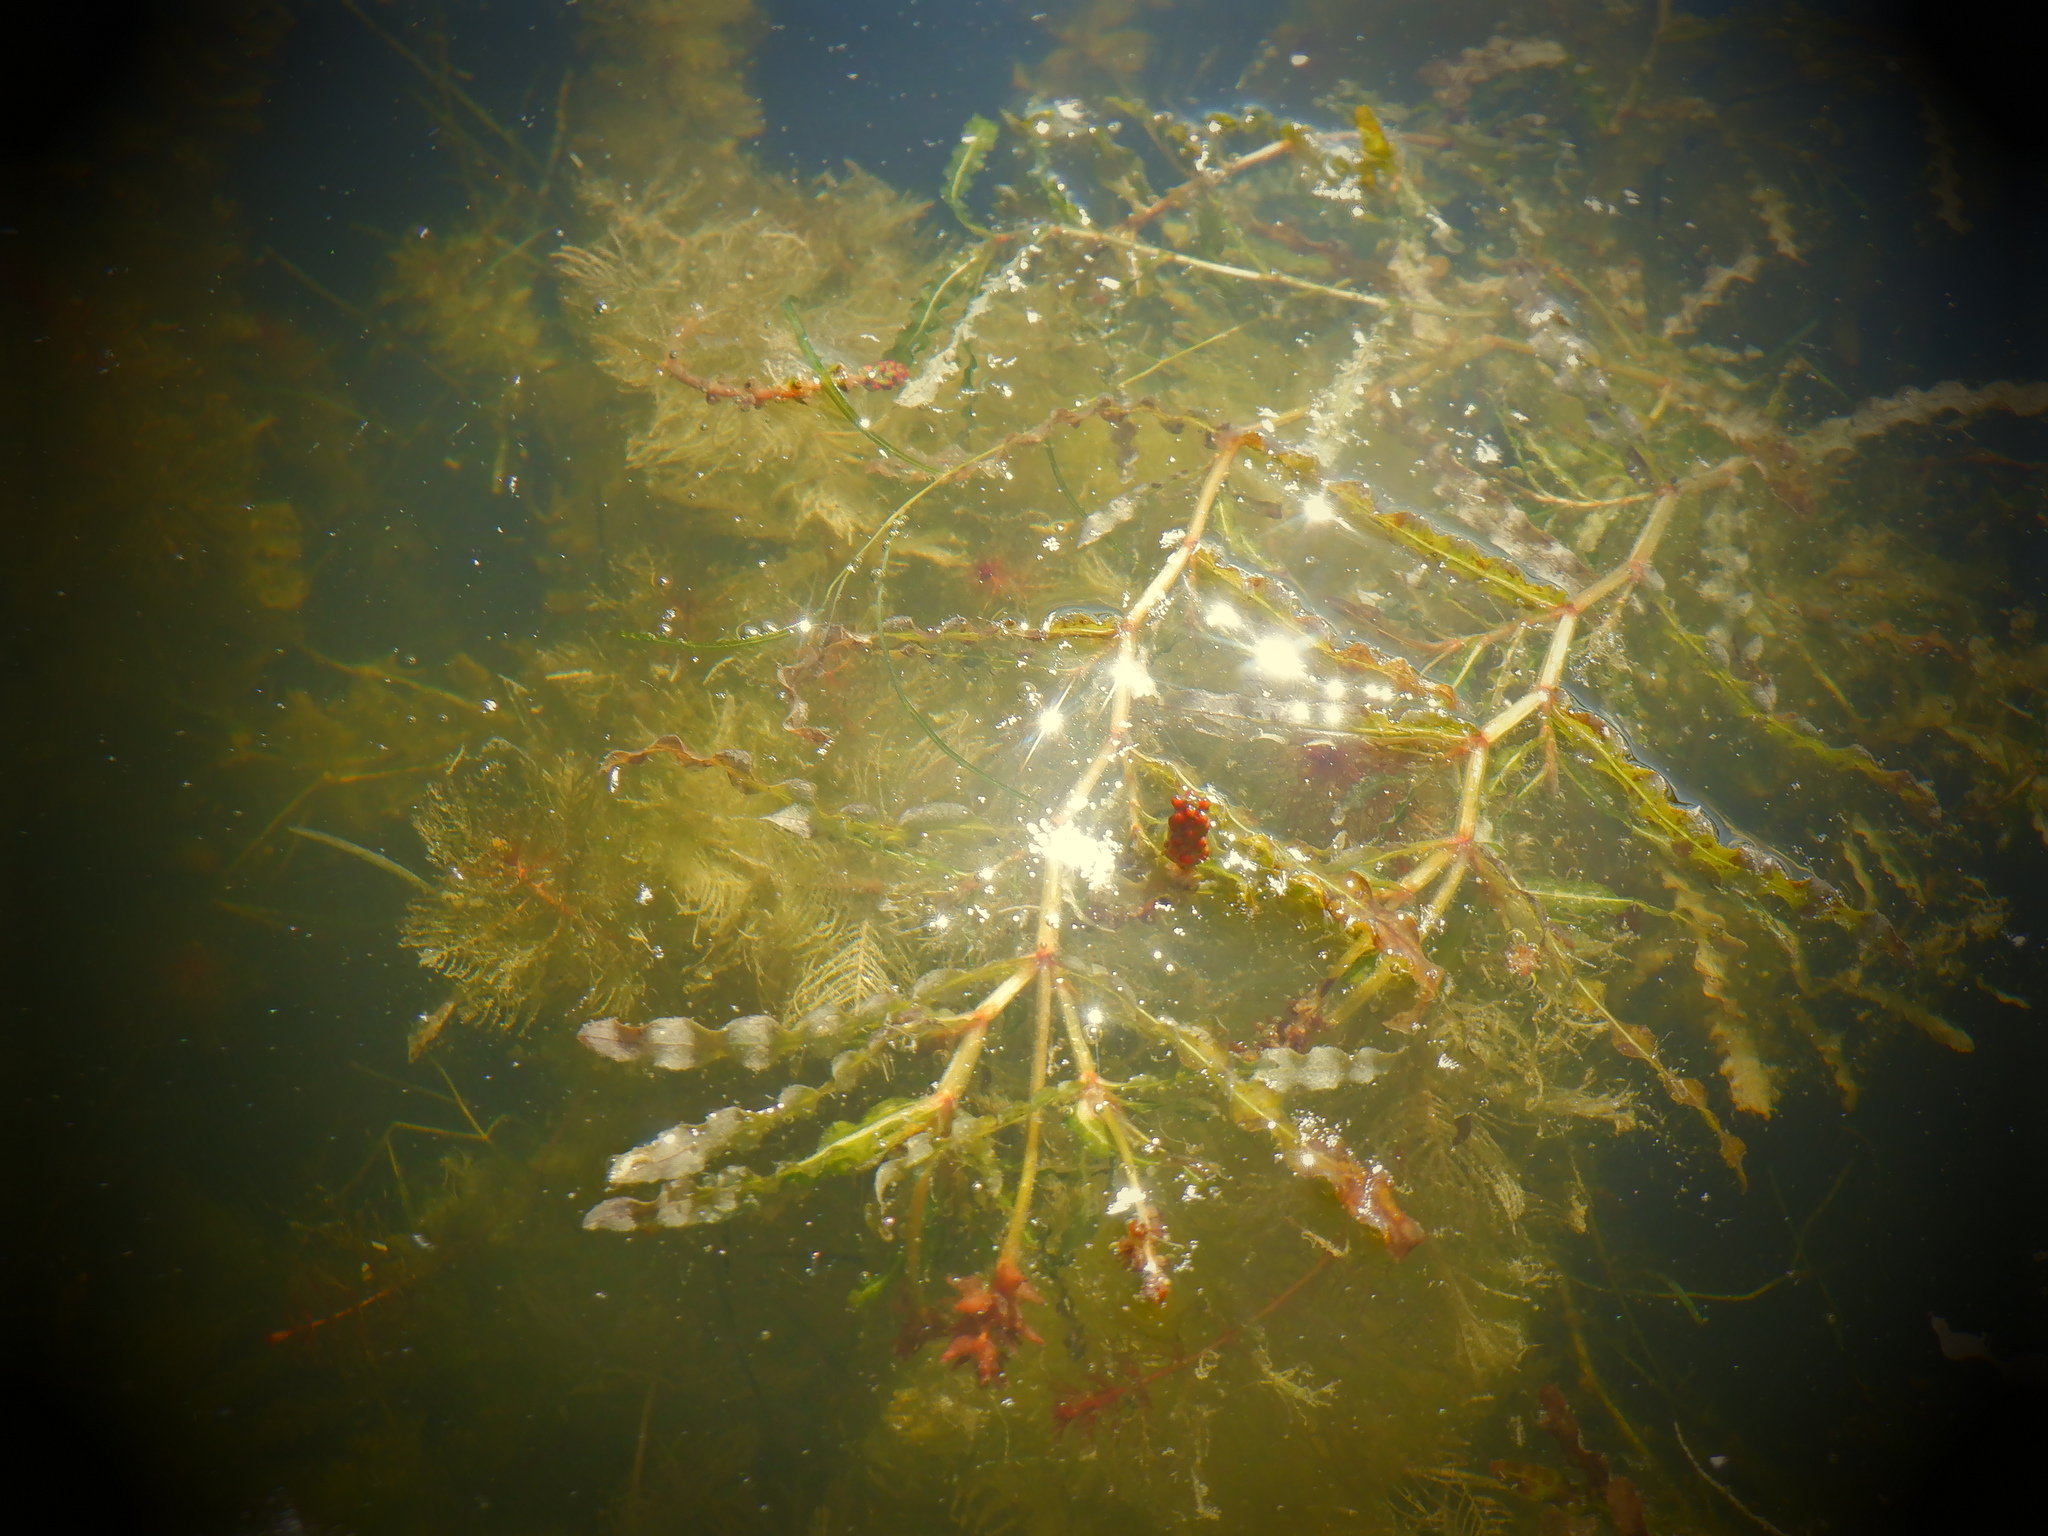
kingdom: Plantae
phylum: Tracheophyta
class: Liliopsida
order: Alismatales
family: Potamogetonaceae
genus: Potamogeton
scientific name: Potamogeton crispus
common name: Curled pondweed
